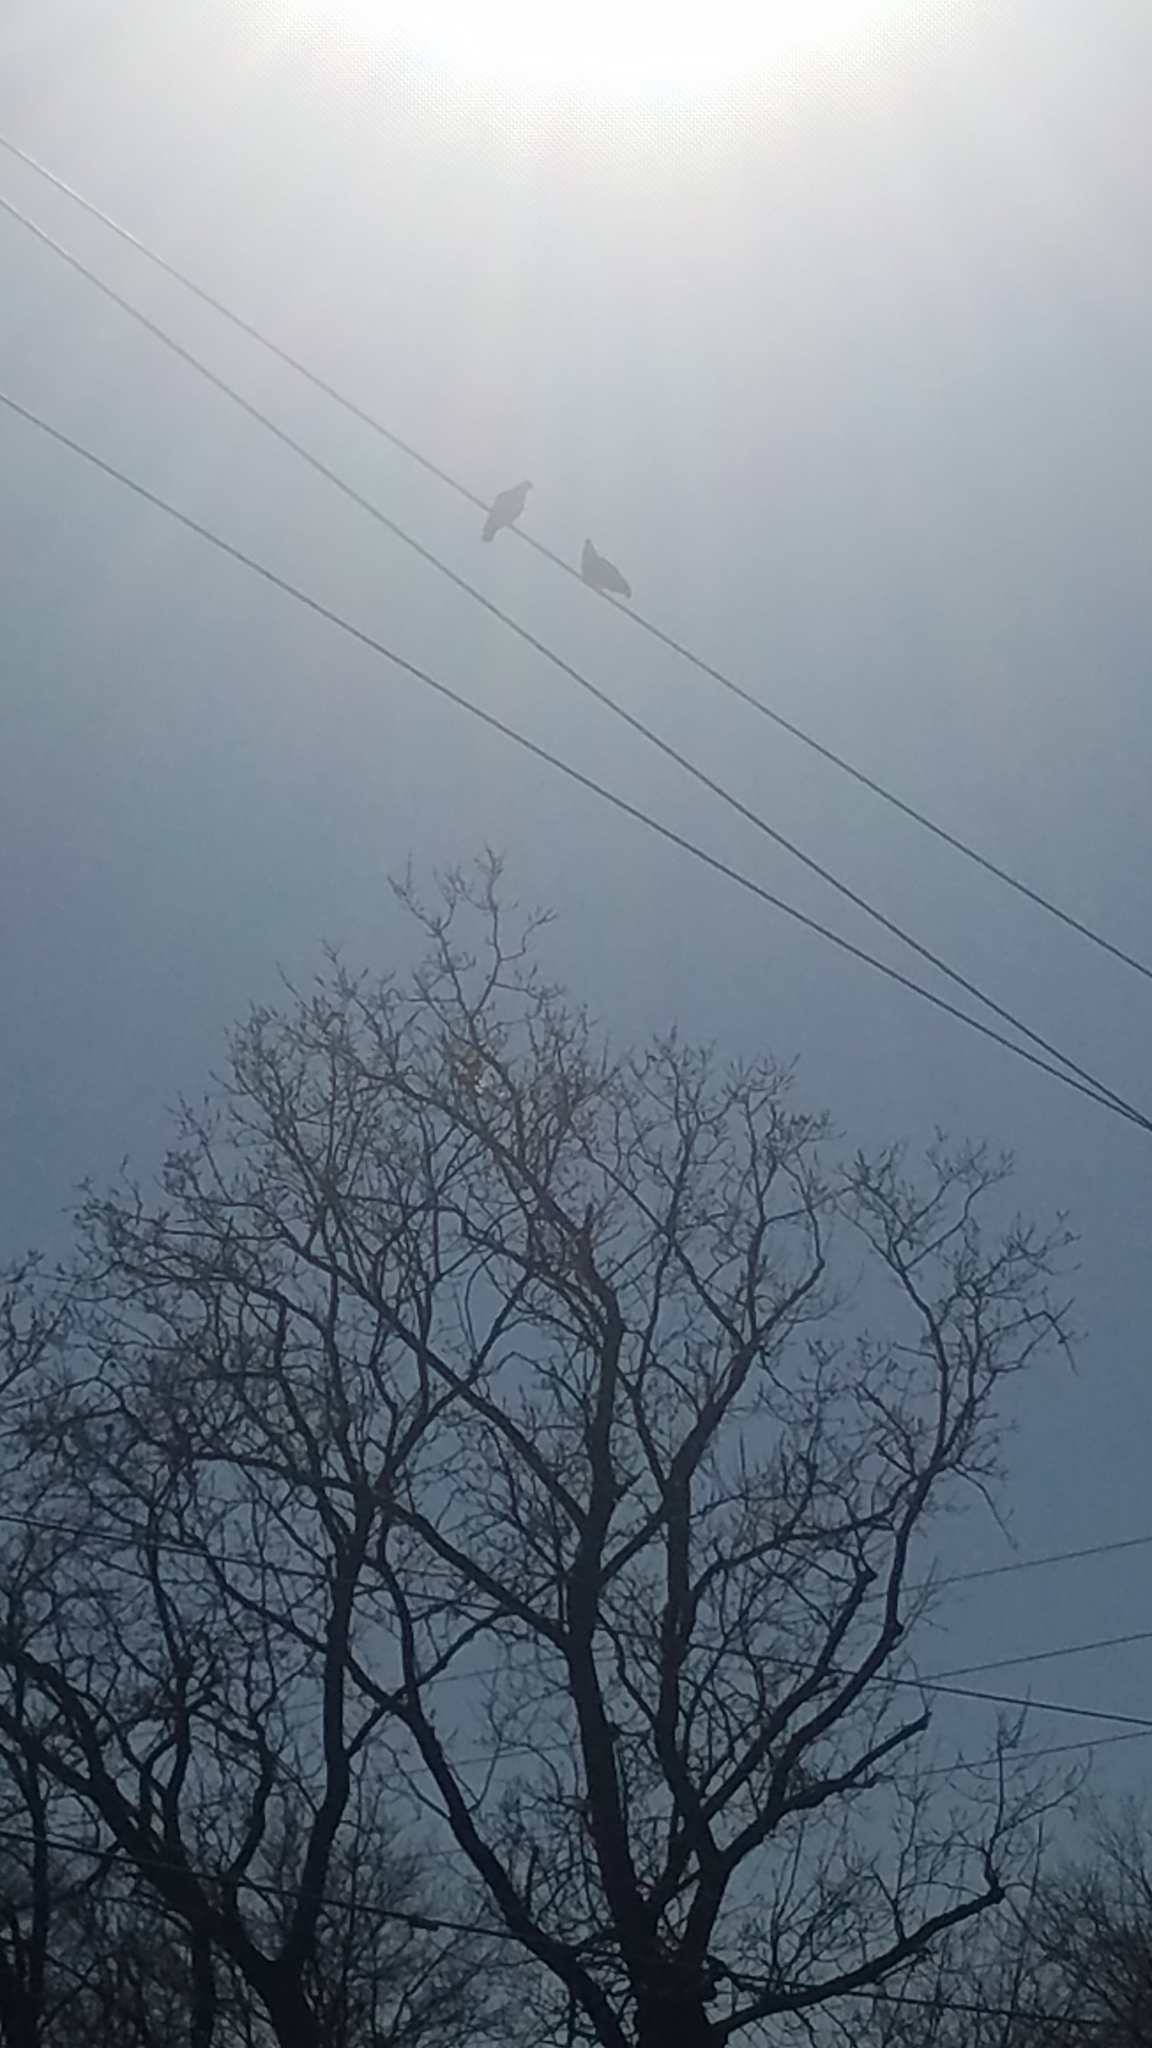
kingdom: Animalia
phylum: Chordata
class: Aves
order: Columbiformes
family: Columbidae
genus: Columba
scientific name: Columba livia
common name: Rock pigeon
